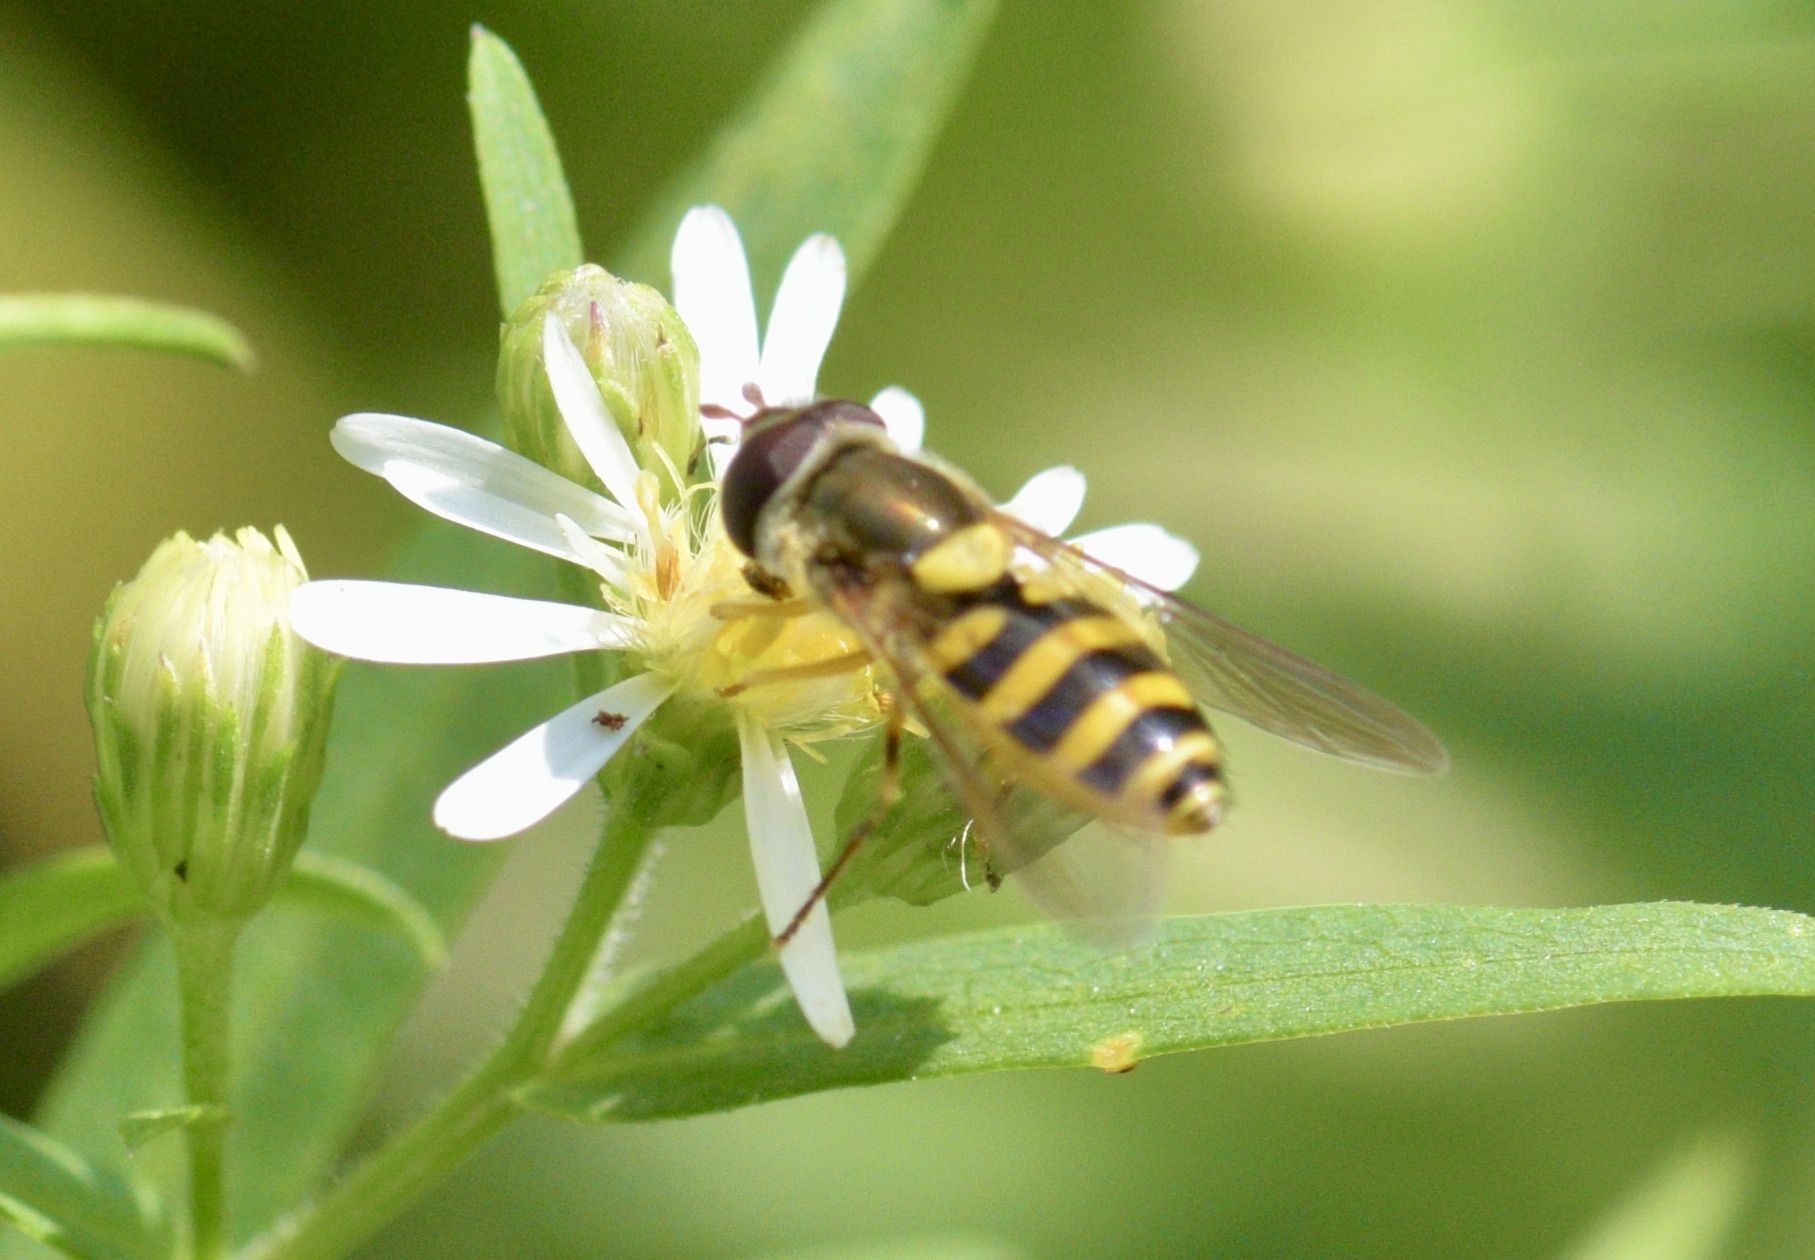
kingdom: Animalia
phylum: Arthropoda
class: Insecta
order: Diptera
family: Syrphidae
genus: Syrphus
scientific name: Syrphus rectus
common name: Yellow-legged flower fly
